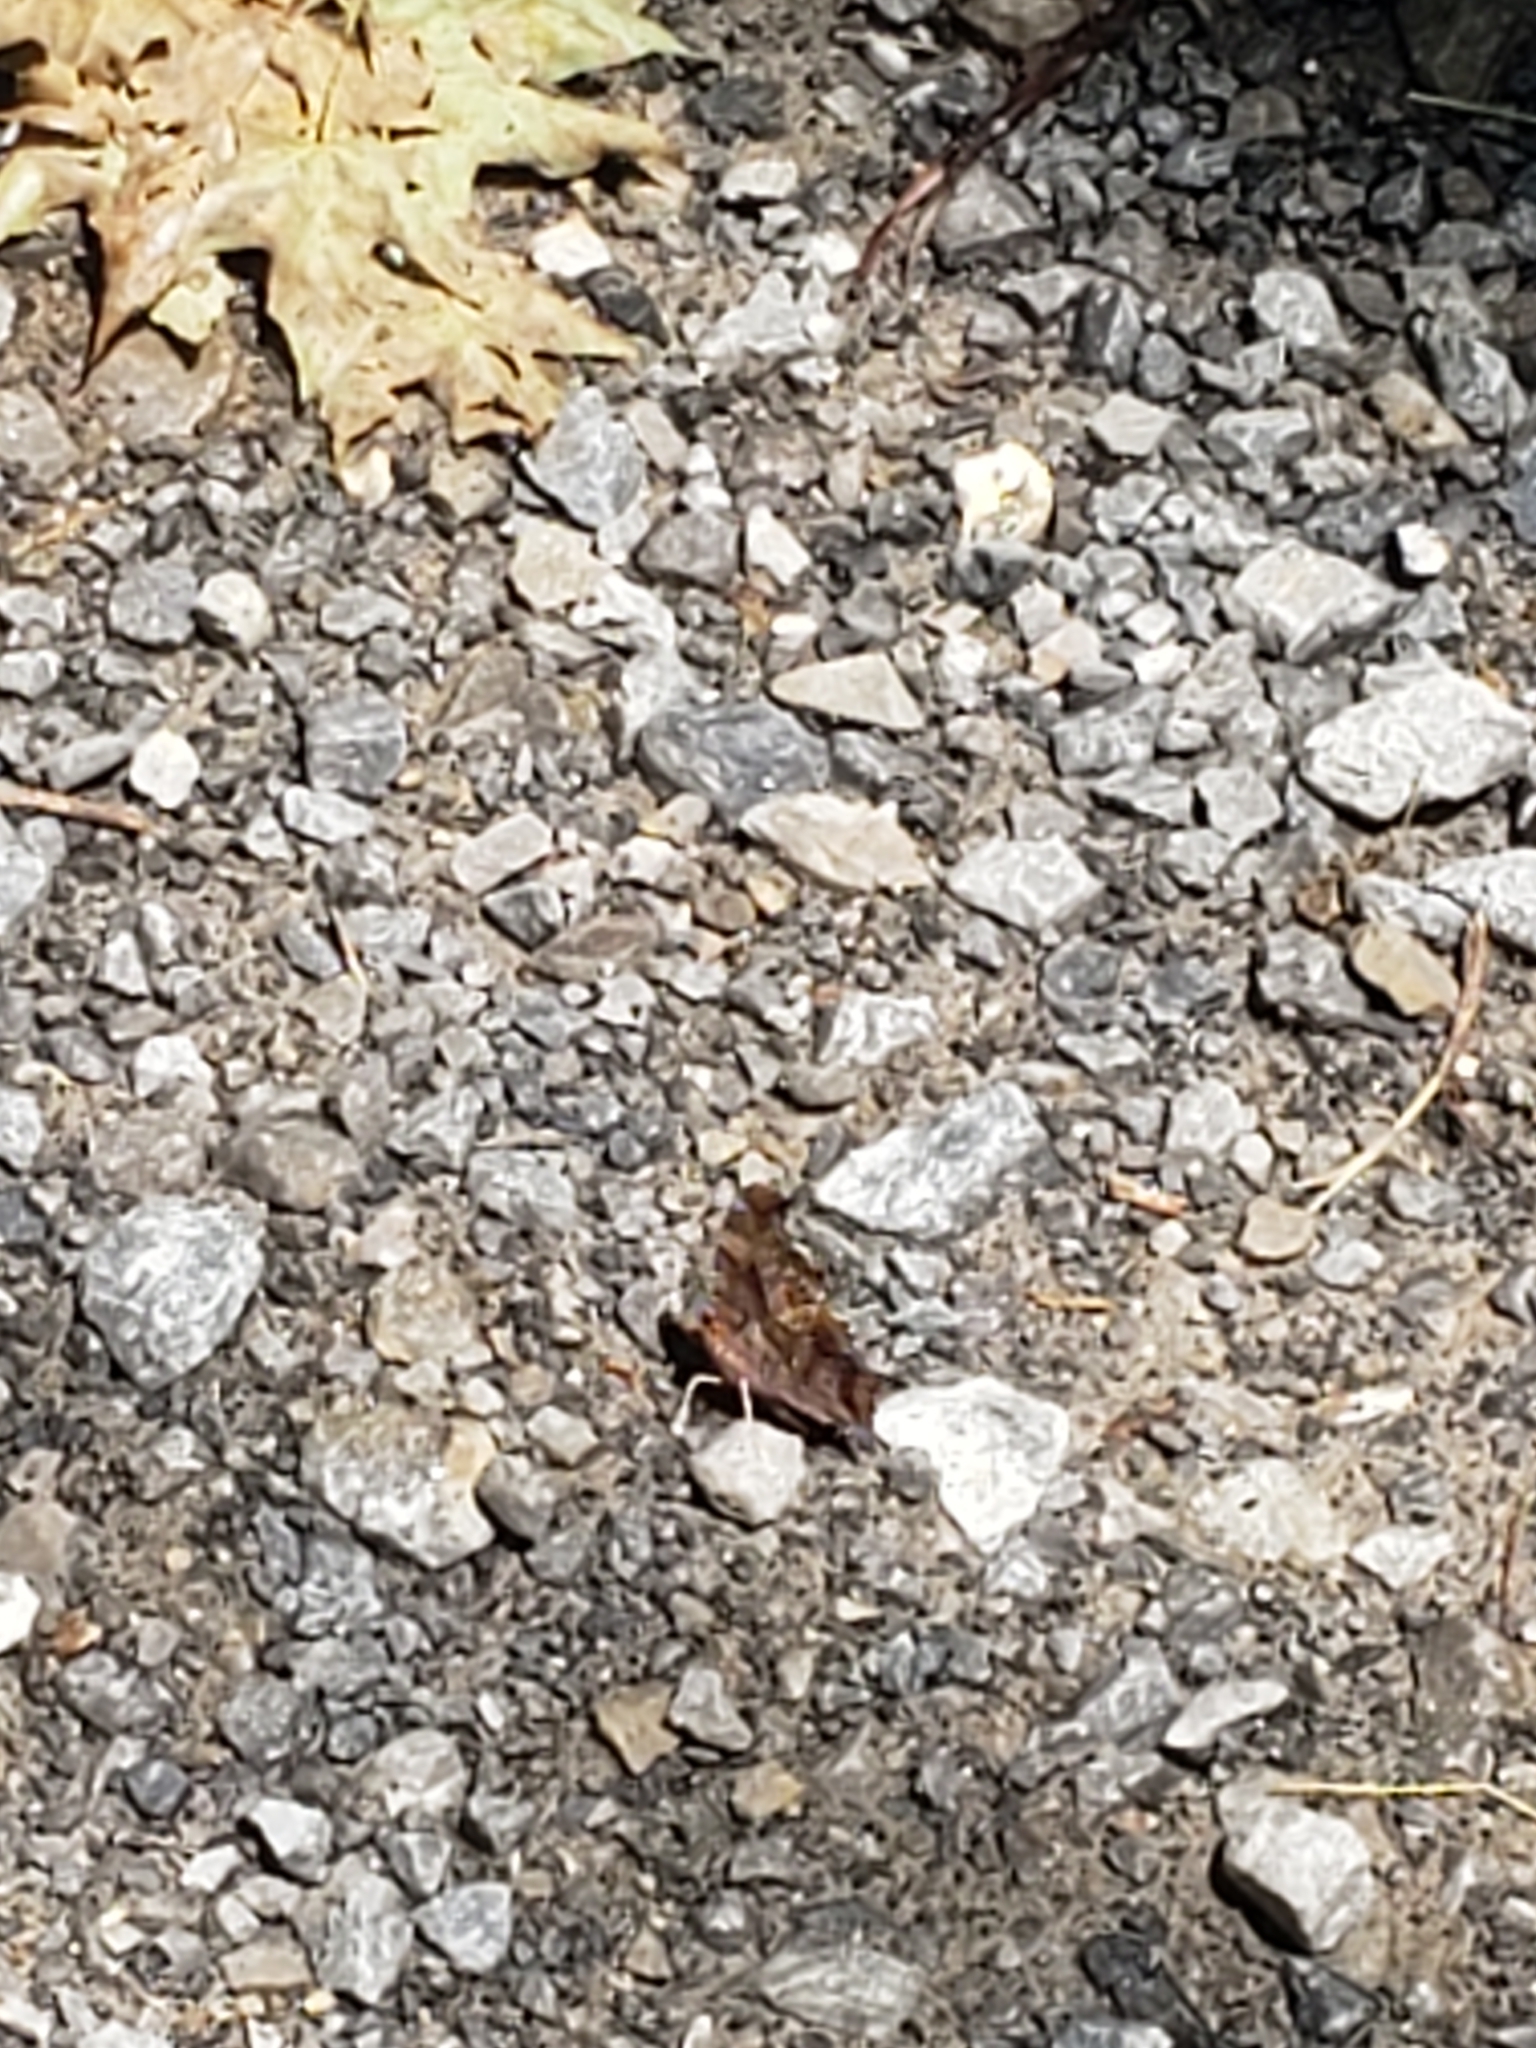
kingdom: Animalia
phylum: Arthropoda
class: Insecta
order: Lepidoptera
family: Nymphalidae
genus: Polygonia
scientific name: Polygonia interrogationis
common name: Question mark
